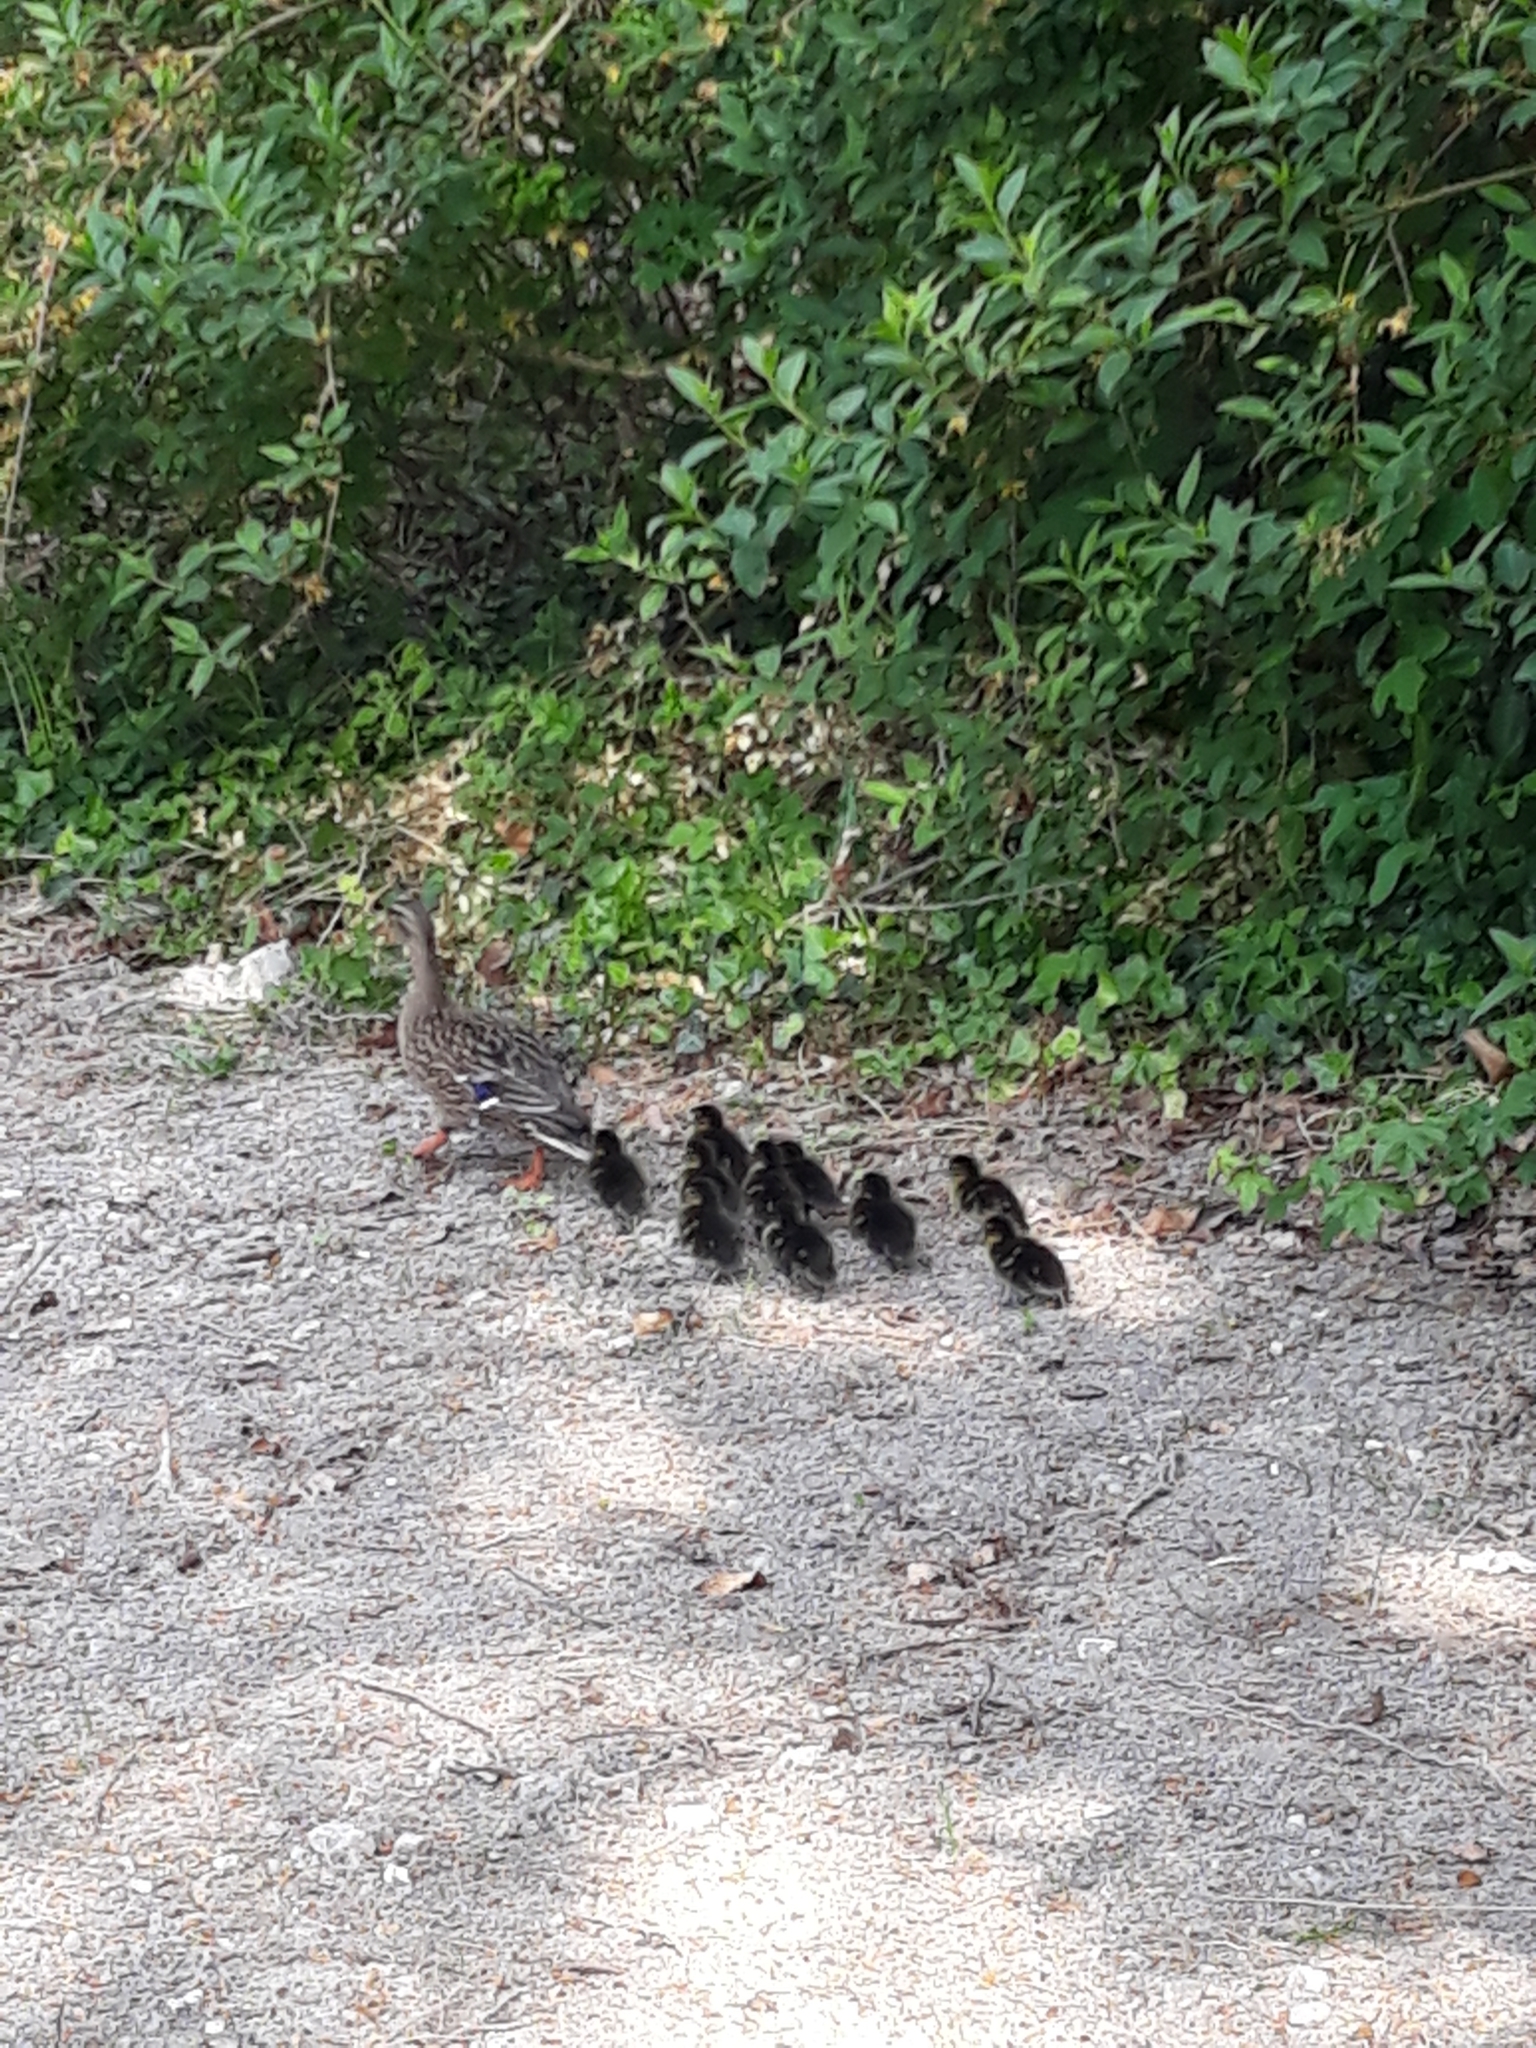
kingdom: Animalia
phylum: Chordata
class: Aves
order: Anseriformes
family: Anatidae
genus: Anas
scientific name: Anas platyrhynchos
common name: Mallard
